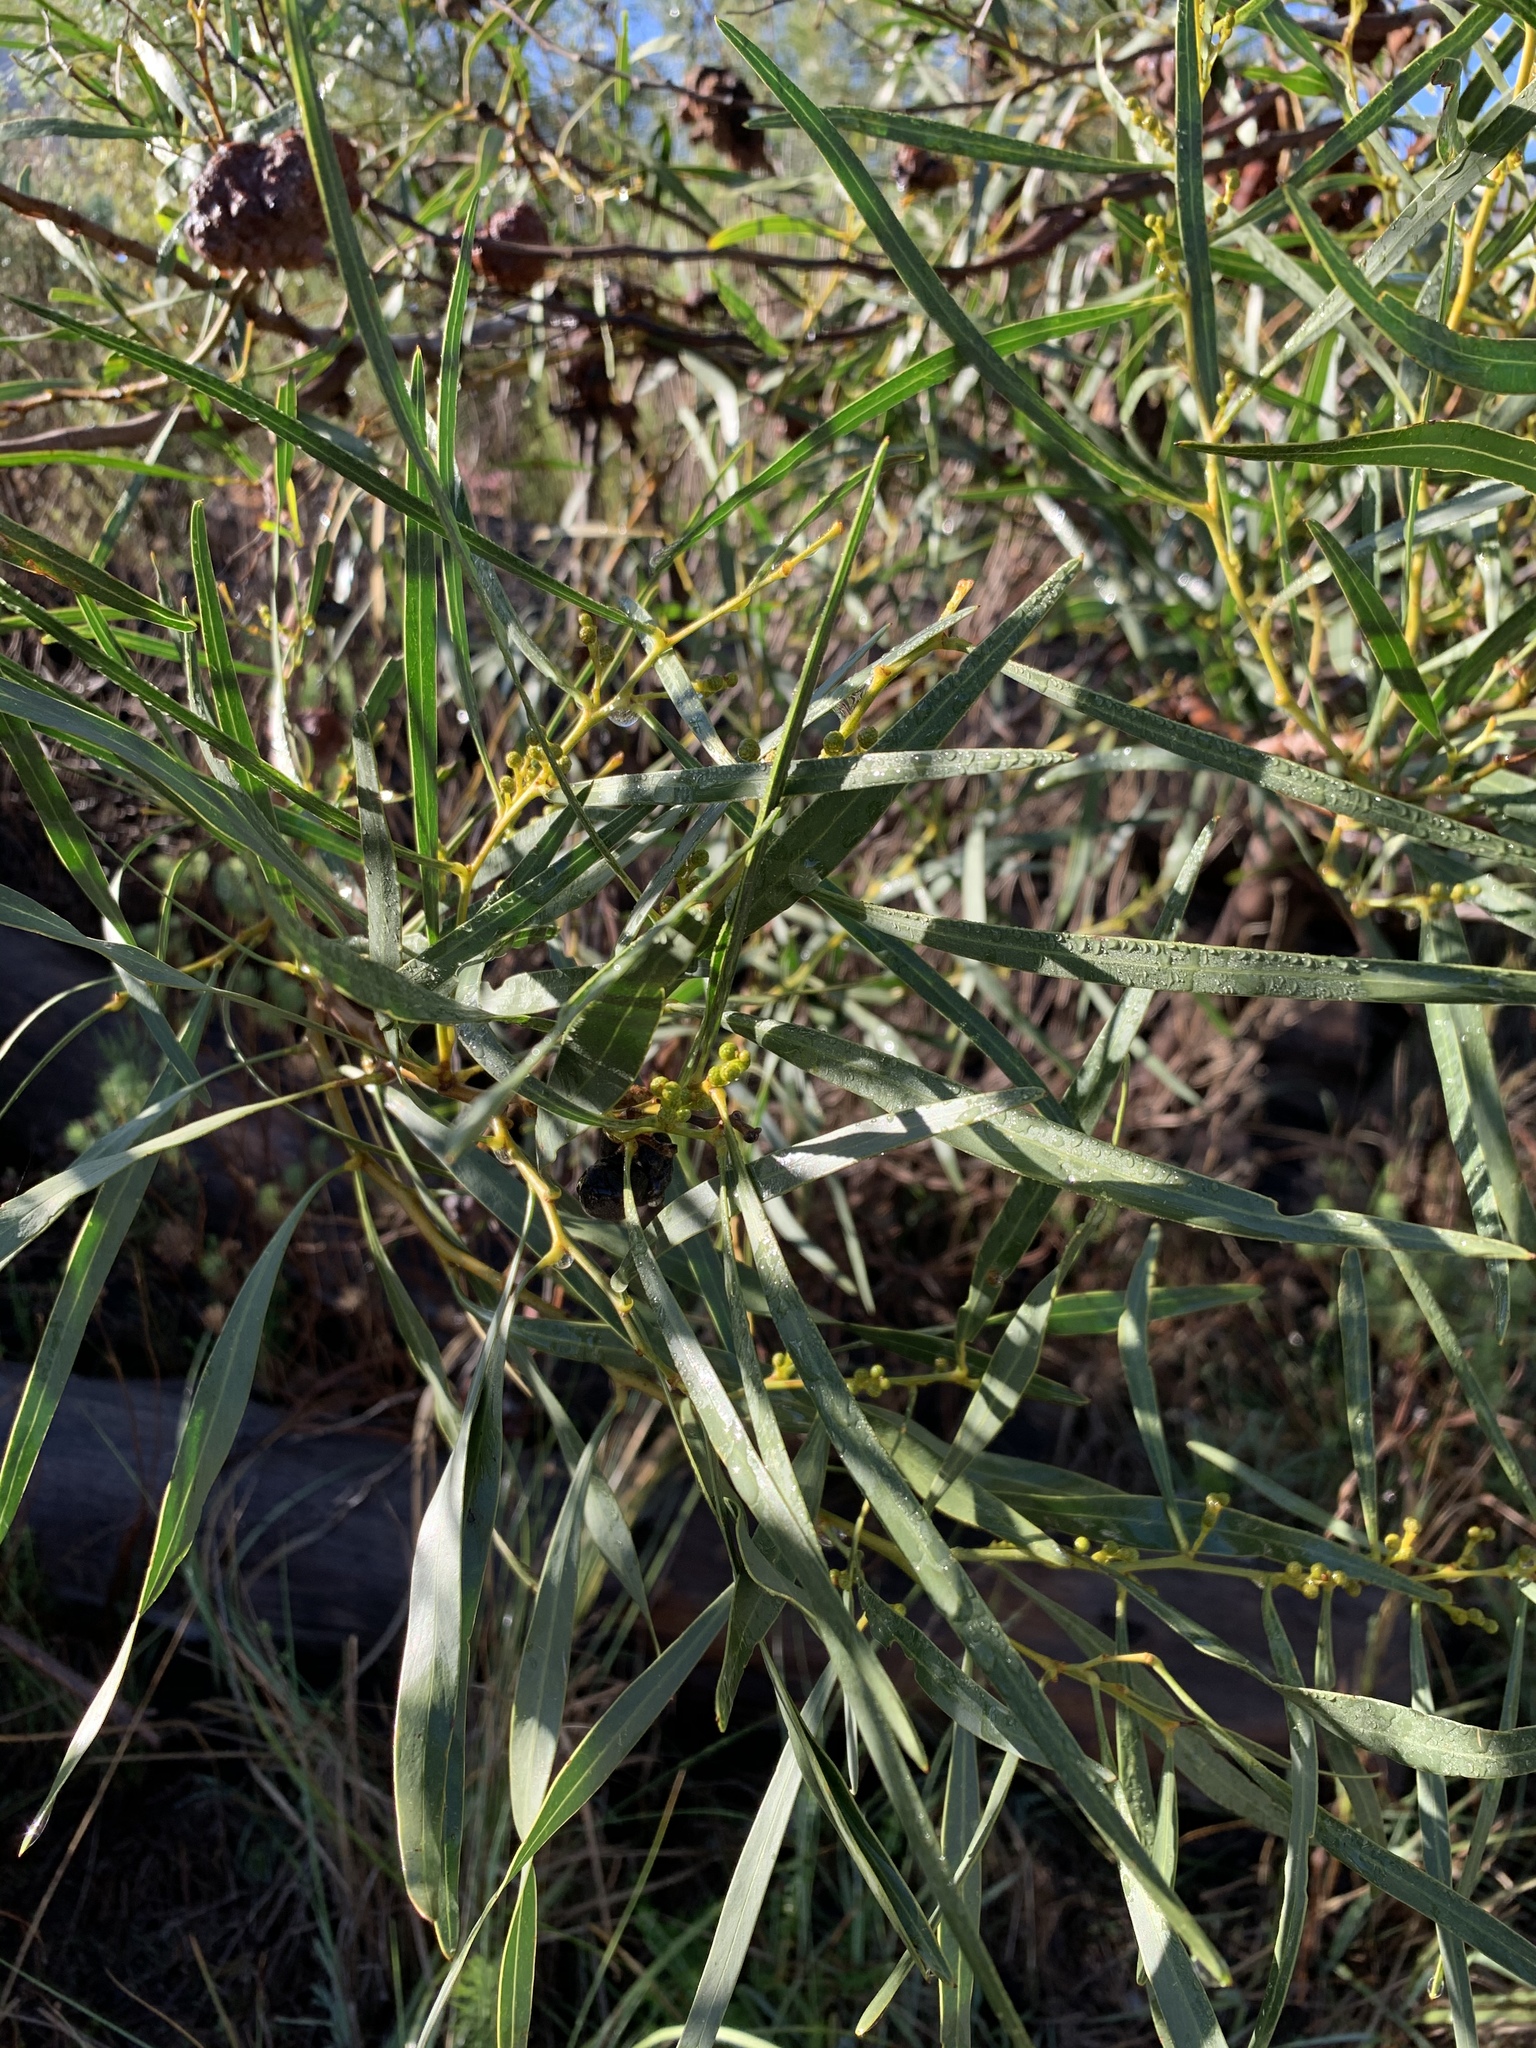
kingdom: Plantae
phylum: Tracheophyta
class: Magnoliopsida
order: Fabales
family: Fabaceae
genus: Acacia
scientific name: Acacia saligna
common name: Orange wattle
